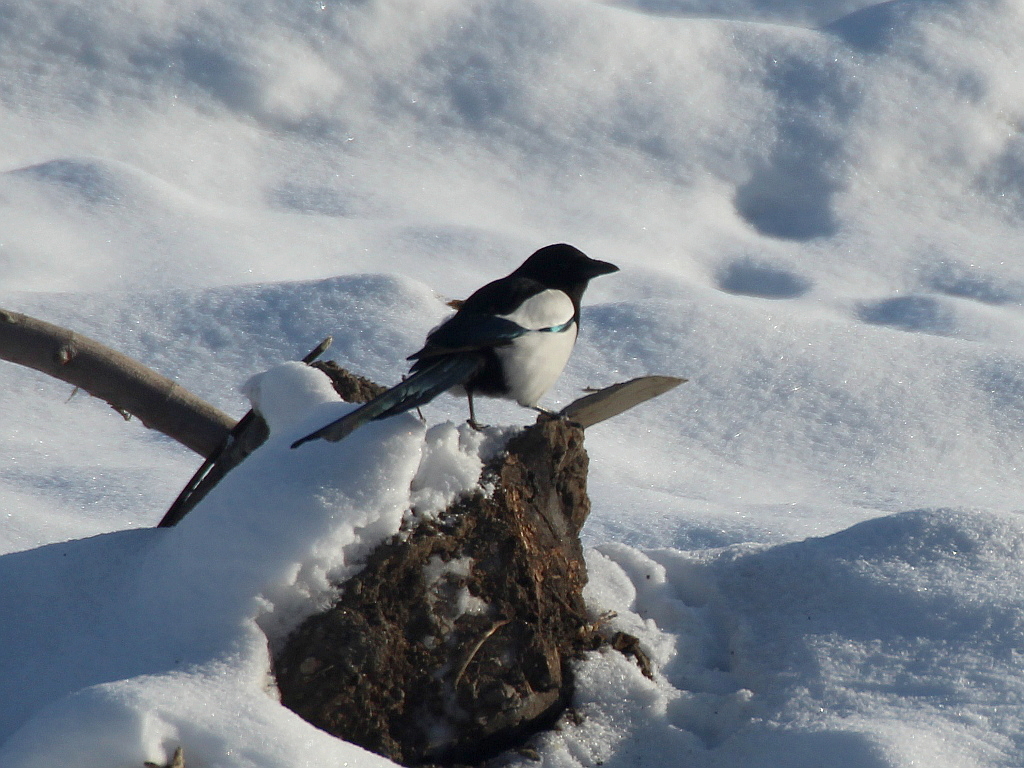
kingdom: Animalia
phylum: Chordata
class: Aves
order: Passeriformes
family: Corvidae
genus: Pica
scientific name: Pica pica
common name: Eurasian magpie
